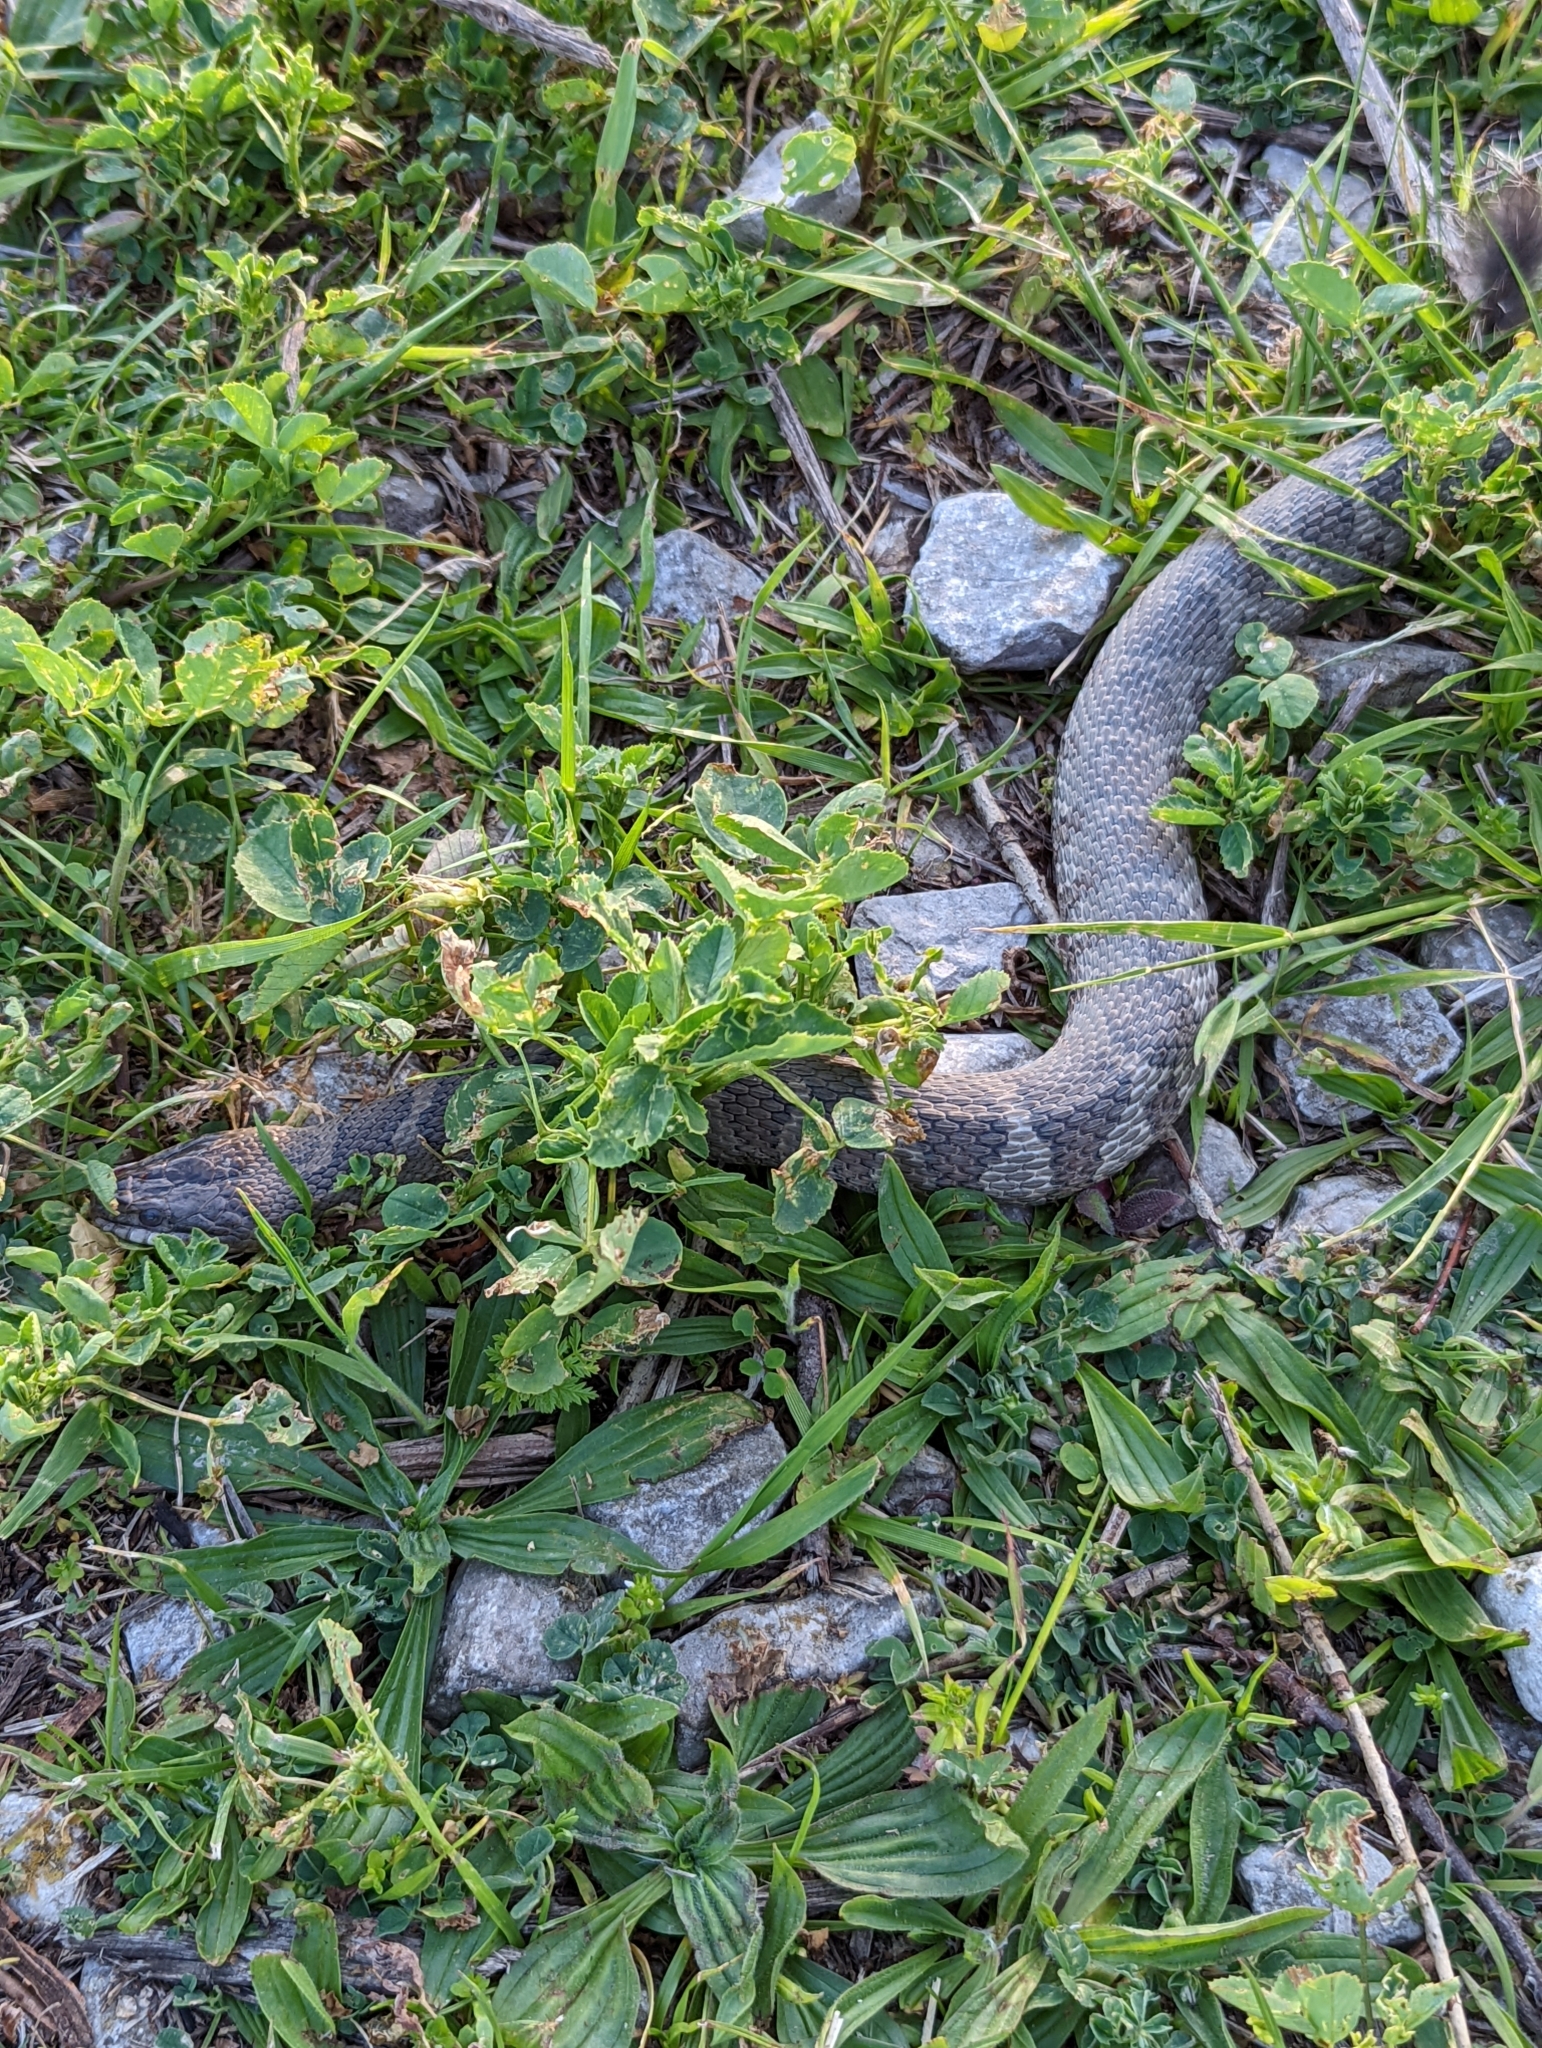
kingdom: Animalia
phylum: Chordata
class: Squamata
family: Colubridae
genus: Nerodia
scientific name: Nerodia sipedon
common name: Northern water snake
